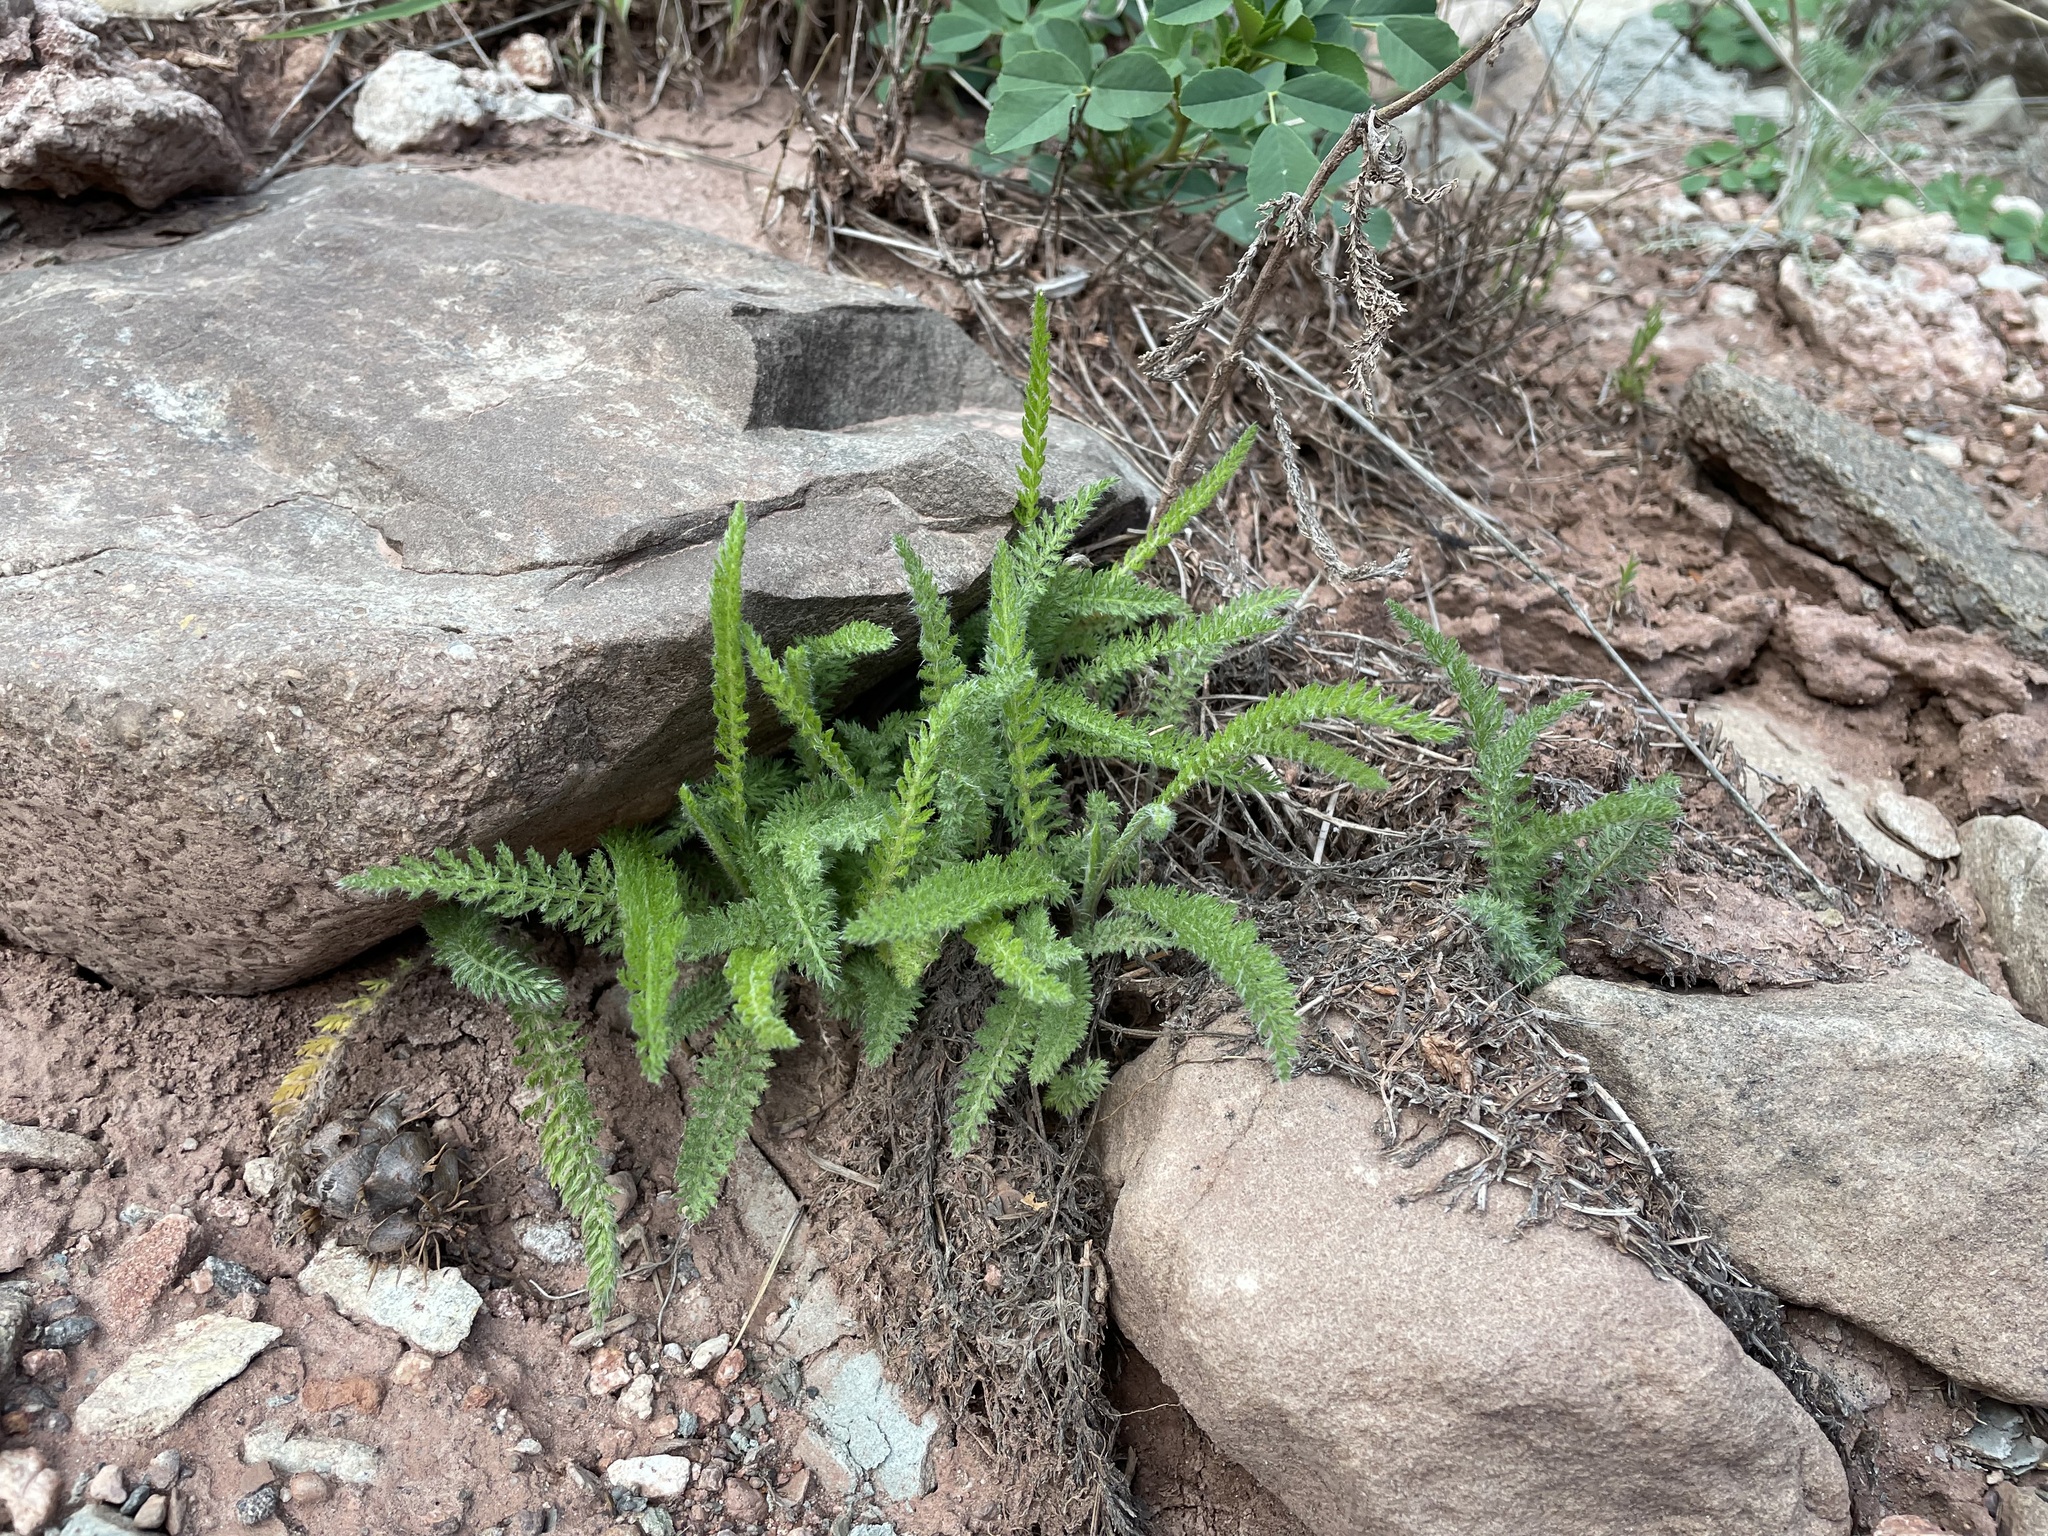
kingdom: Plantae
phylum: Tracheophyta
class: Magnoliopsida
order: Asterales
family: Asteraceae
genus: Achillea
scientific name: Achillea millefolium
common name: Yarrow
